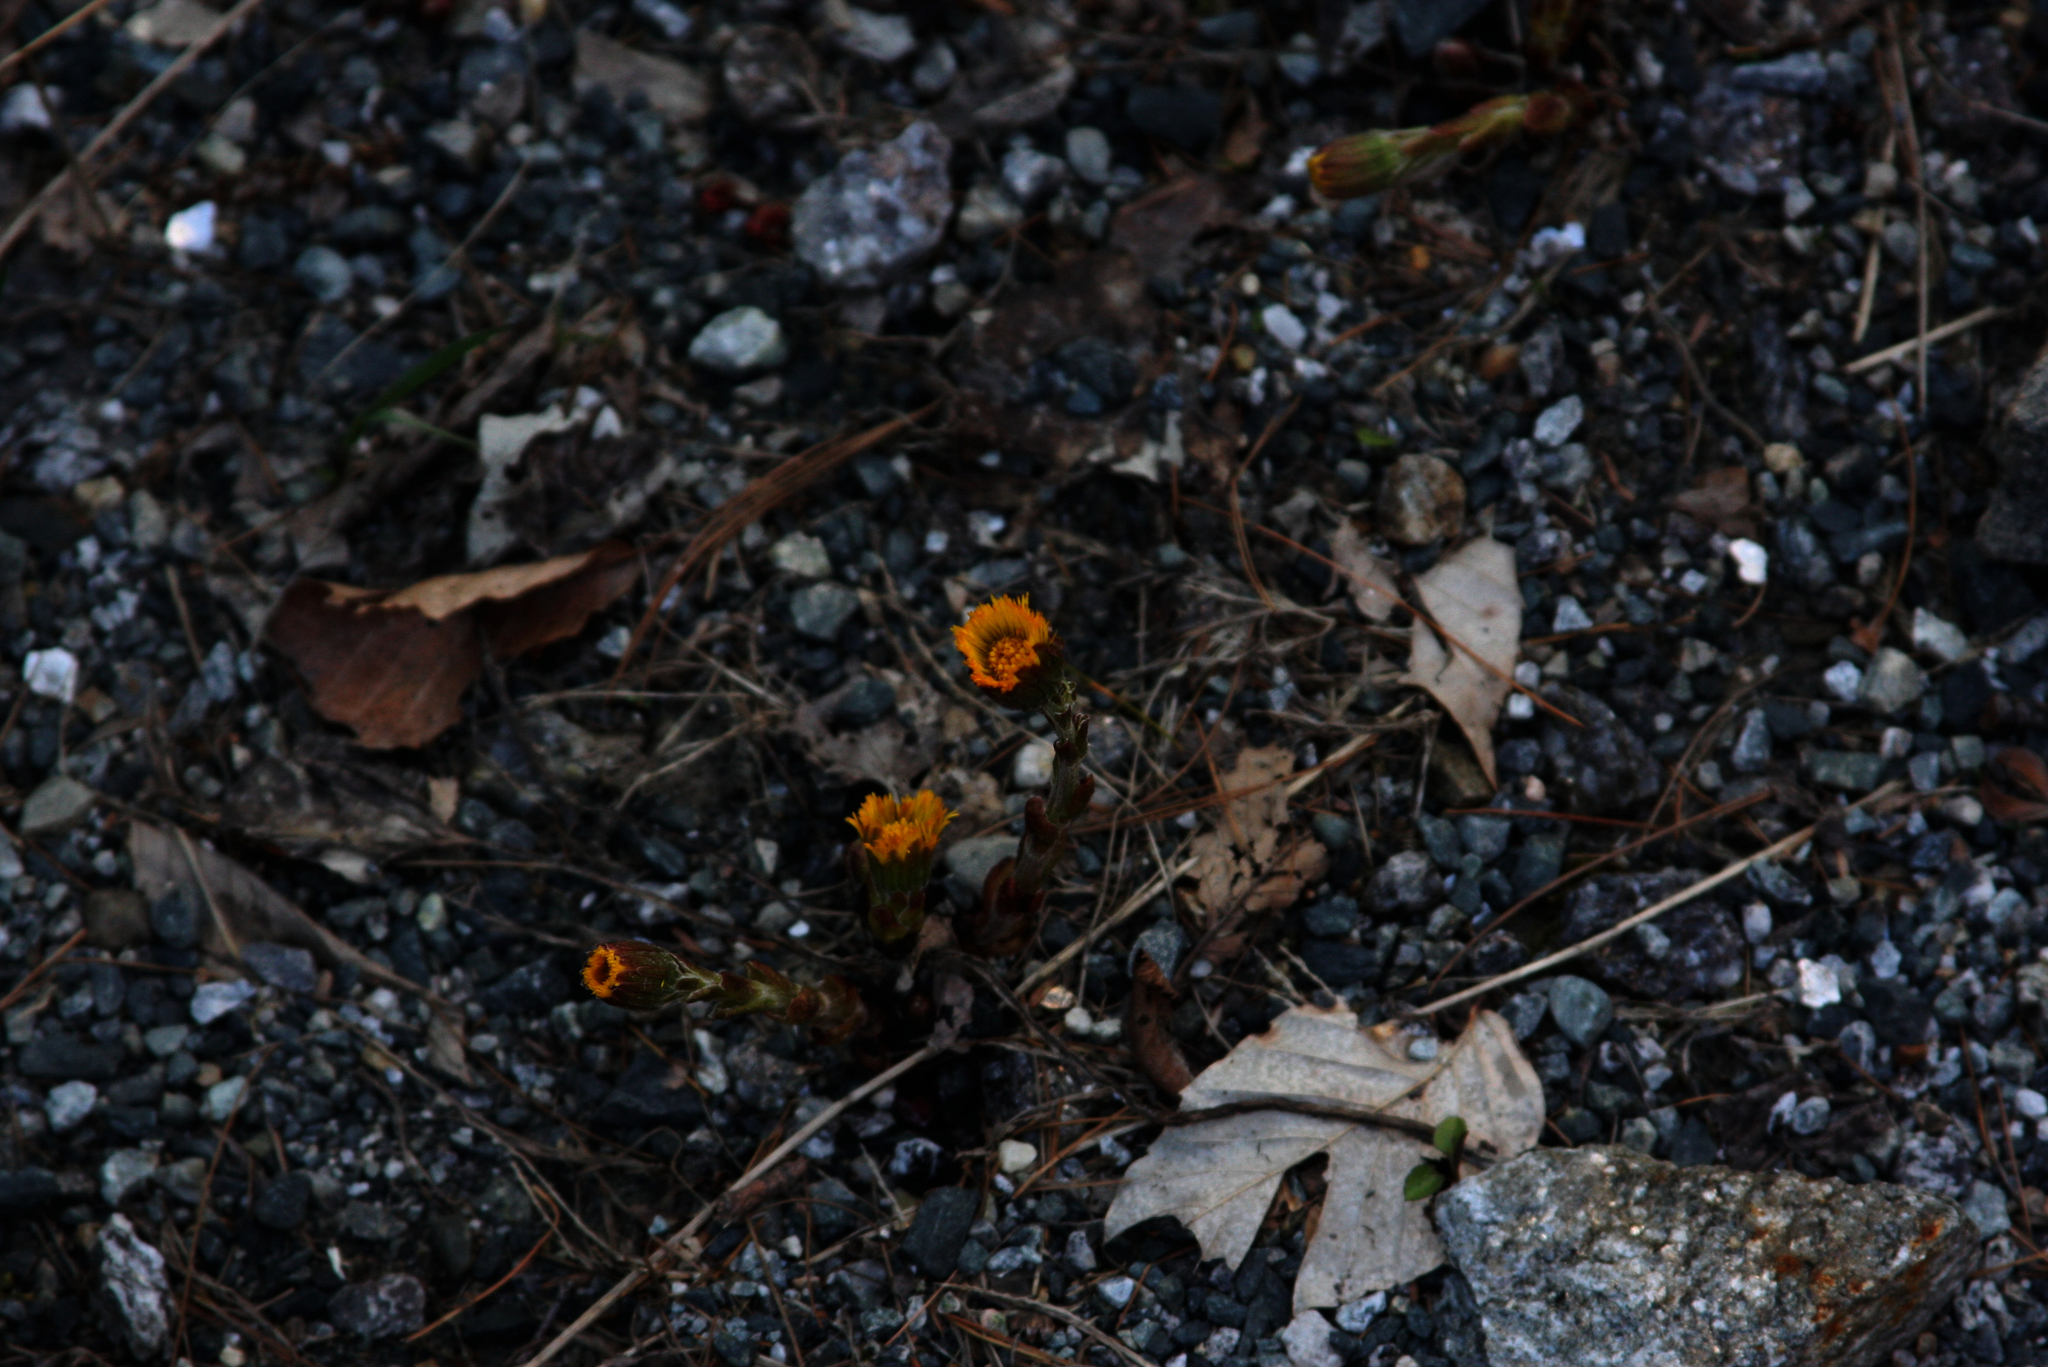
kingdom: Plantae
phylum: Tracheophyta
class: Magnoliopsida
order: Asterales
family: Asteraceae
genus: Tussilago
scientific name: Tussilago farfara
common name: Coltsfoot
